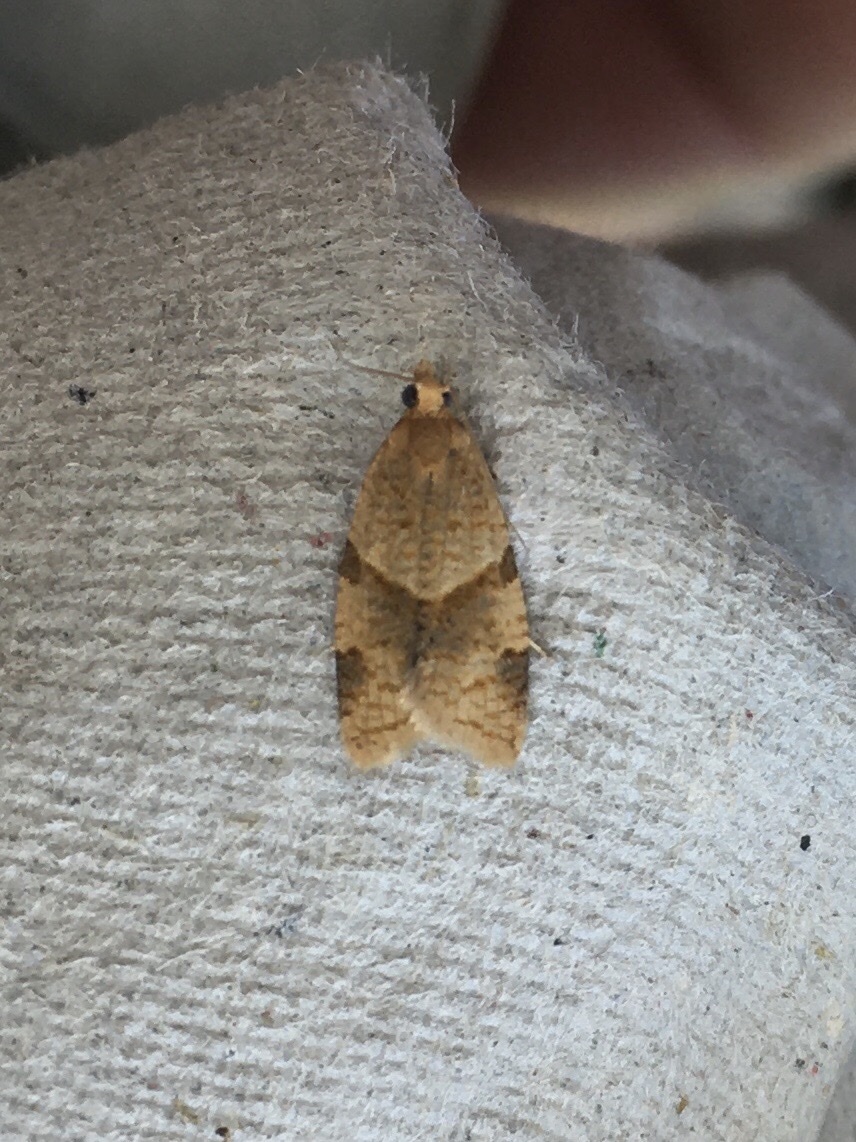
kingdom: Animalia
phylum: Arthropoda
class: Insecta
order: Lepidoptera
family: Tortricidae
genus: Clepsis
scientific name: Clepsis peritana
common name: Garden tortrix
